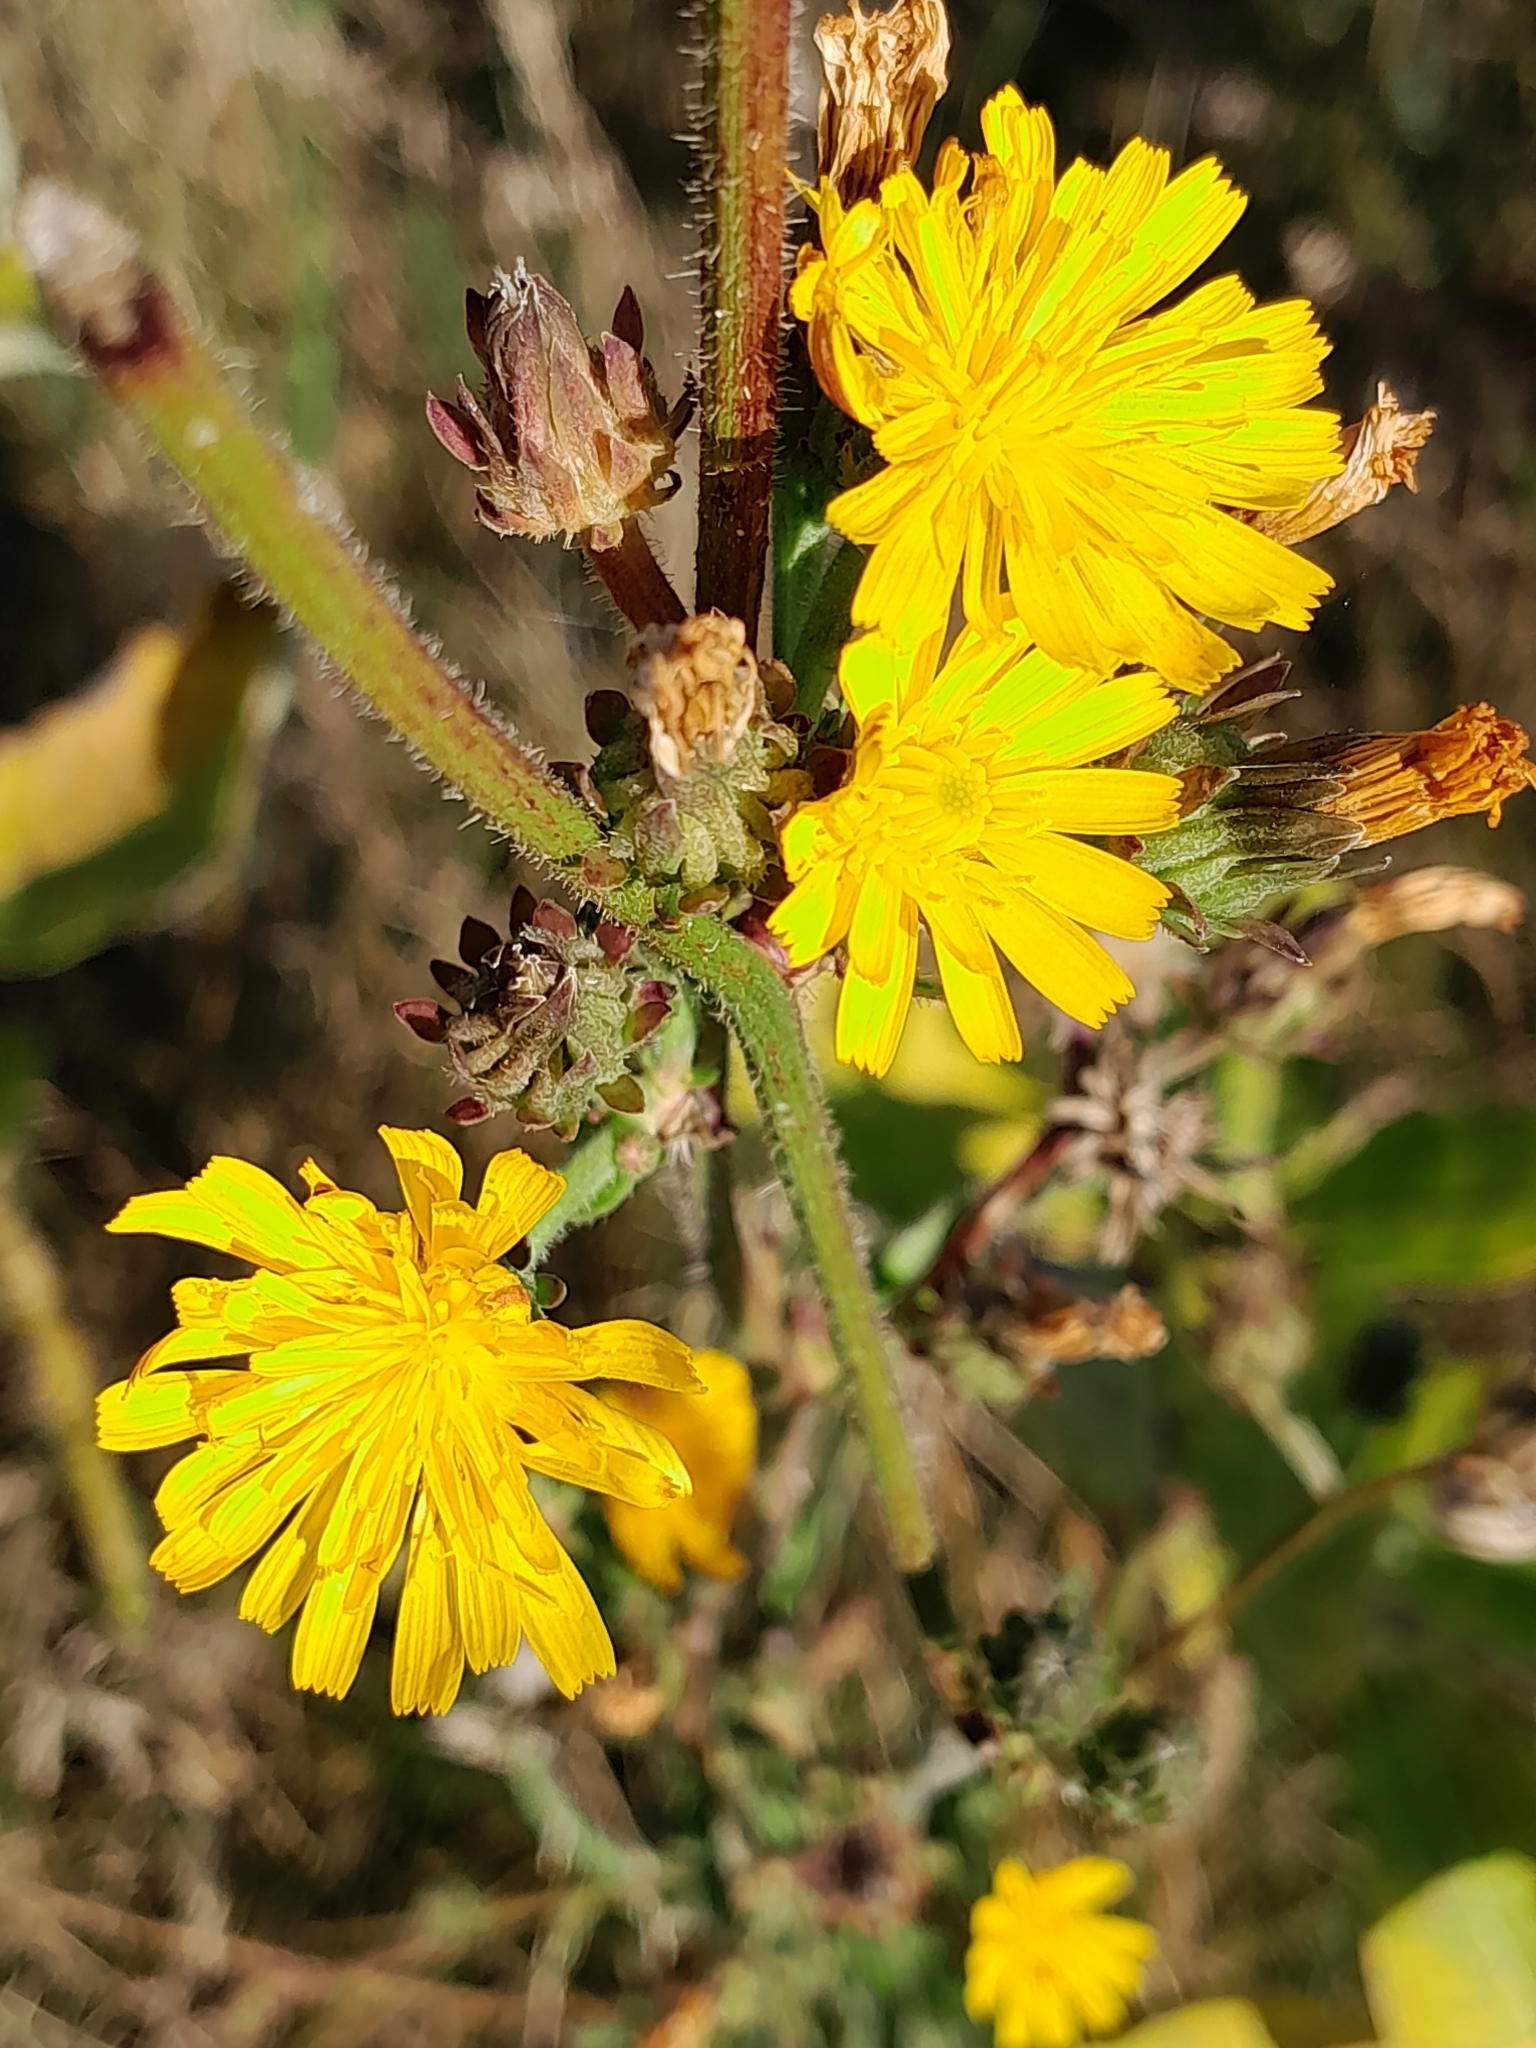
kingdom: Plantae
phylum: Tracheophyta
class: Magnoliopsida
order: Asterales
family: Asteraceae
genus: Picris
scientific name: Picris hieracioides
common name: Hawkweed oxtongue
